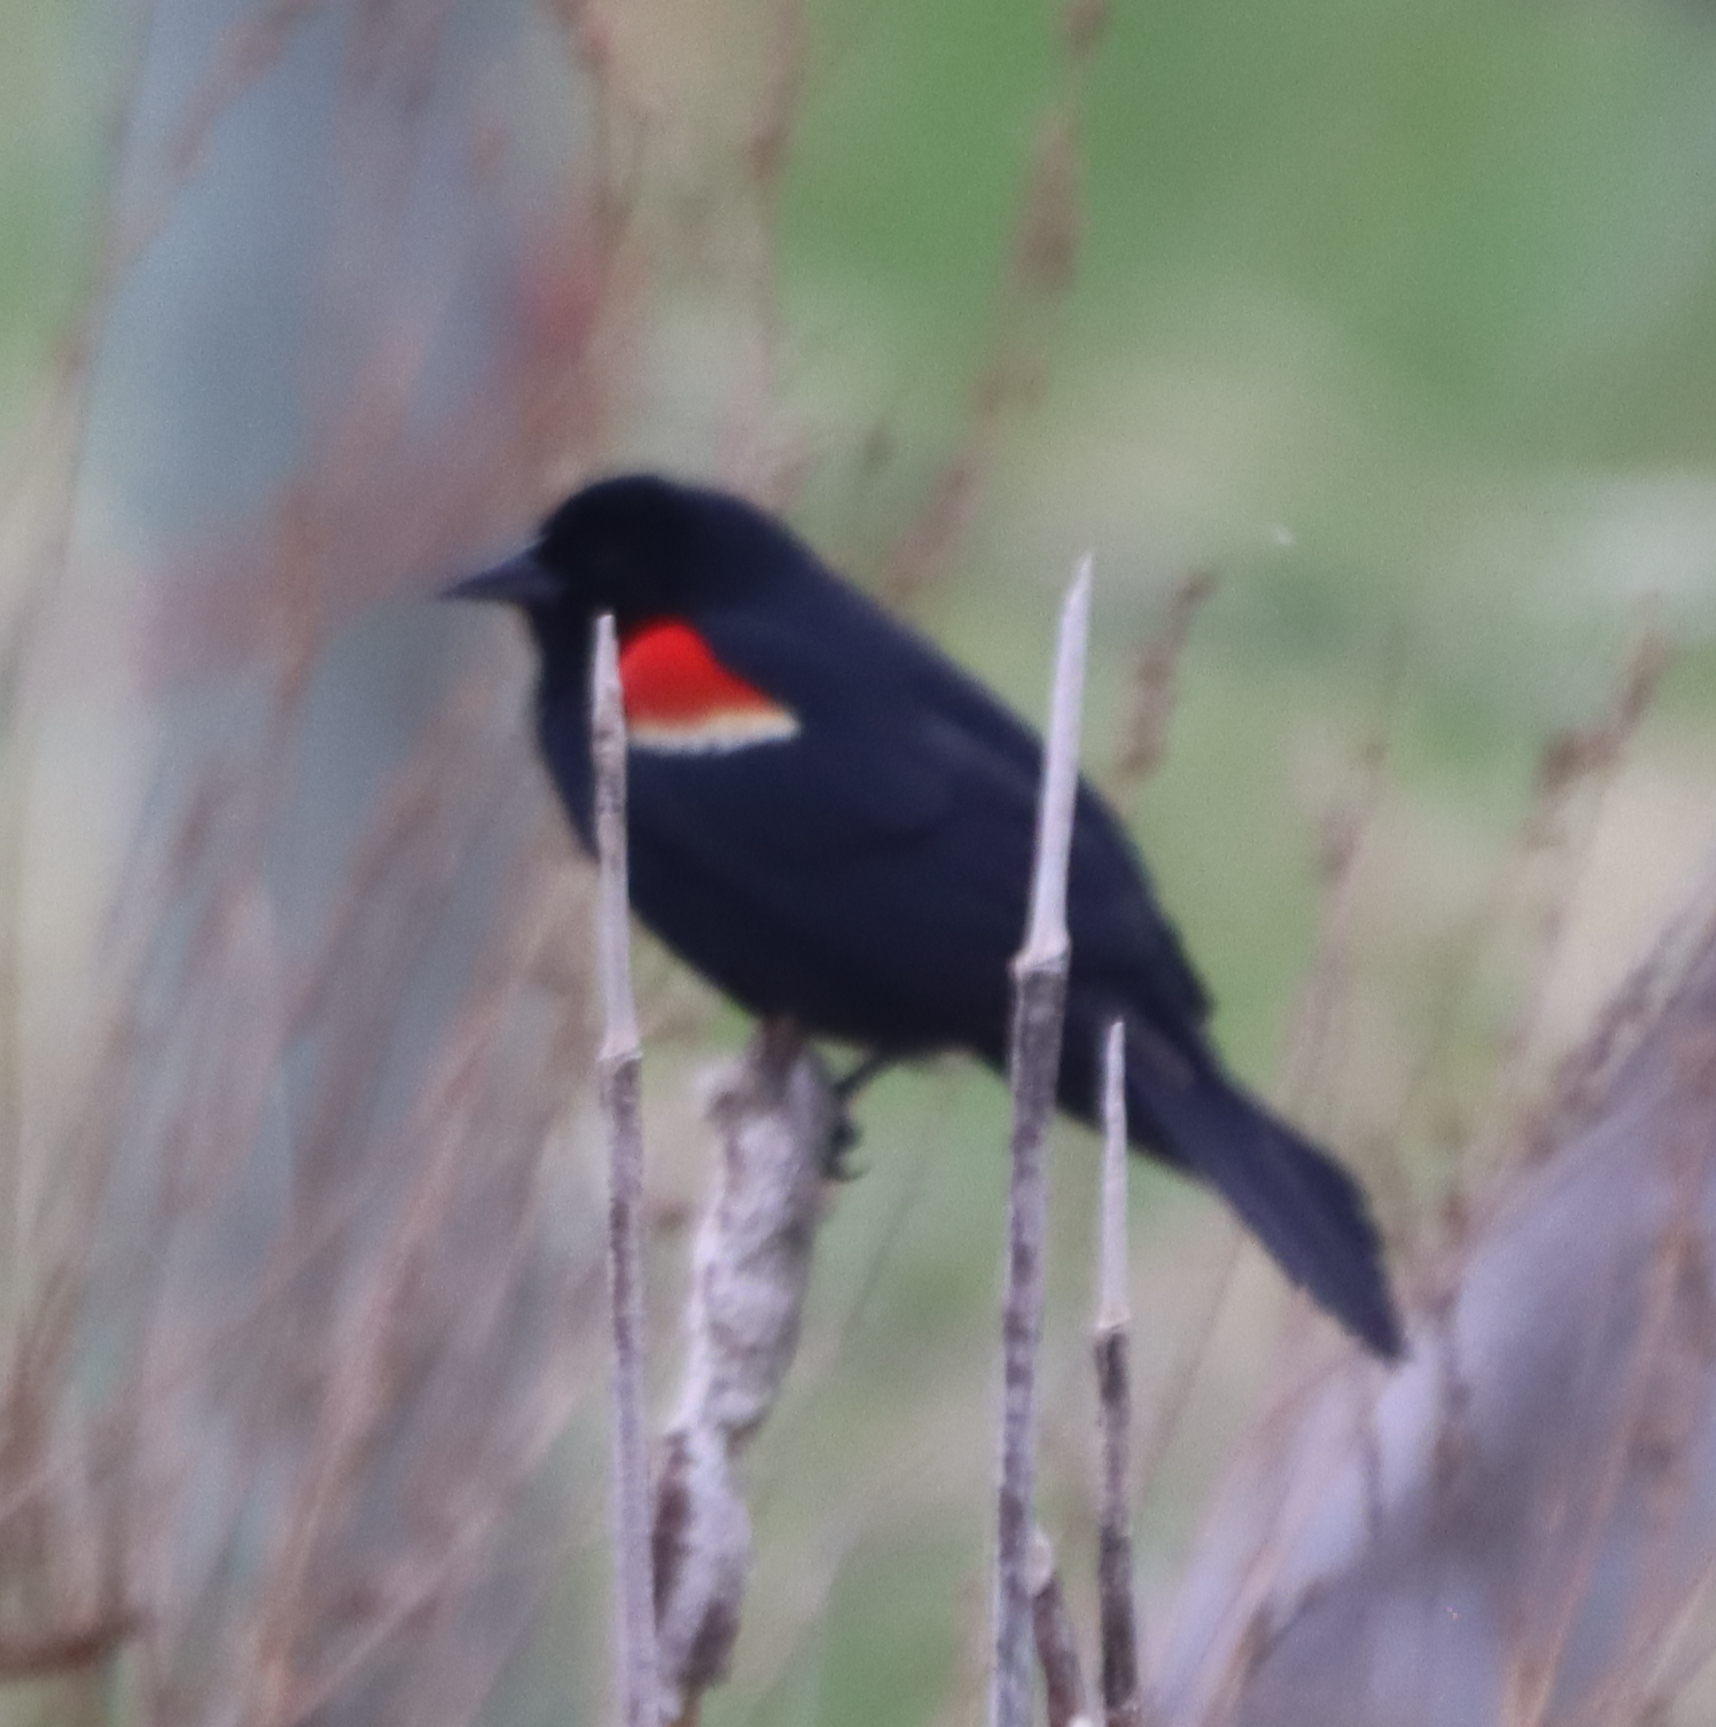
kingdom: Animalia
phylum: Chordata
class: Aves
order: Passeriformes
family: Icteridae
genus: Agelaius
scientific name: Agelaius phoeniceus
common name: Red-winged blackbird
